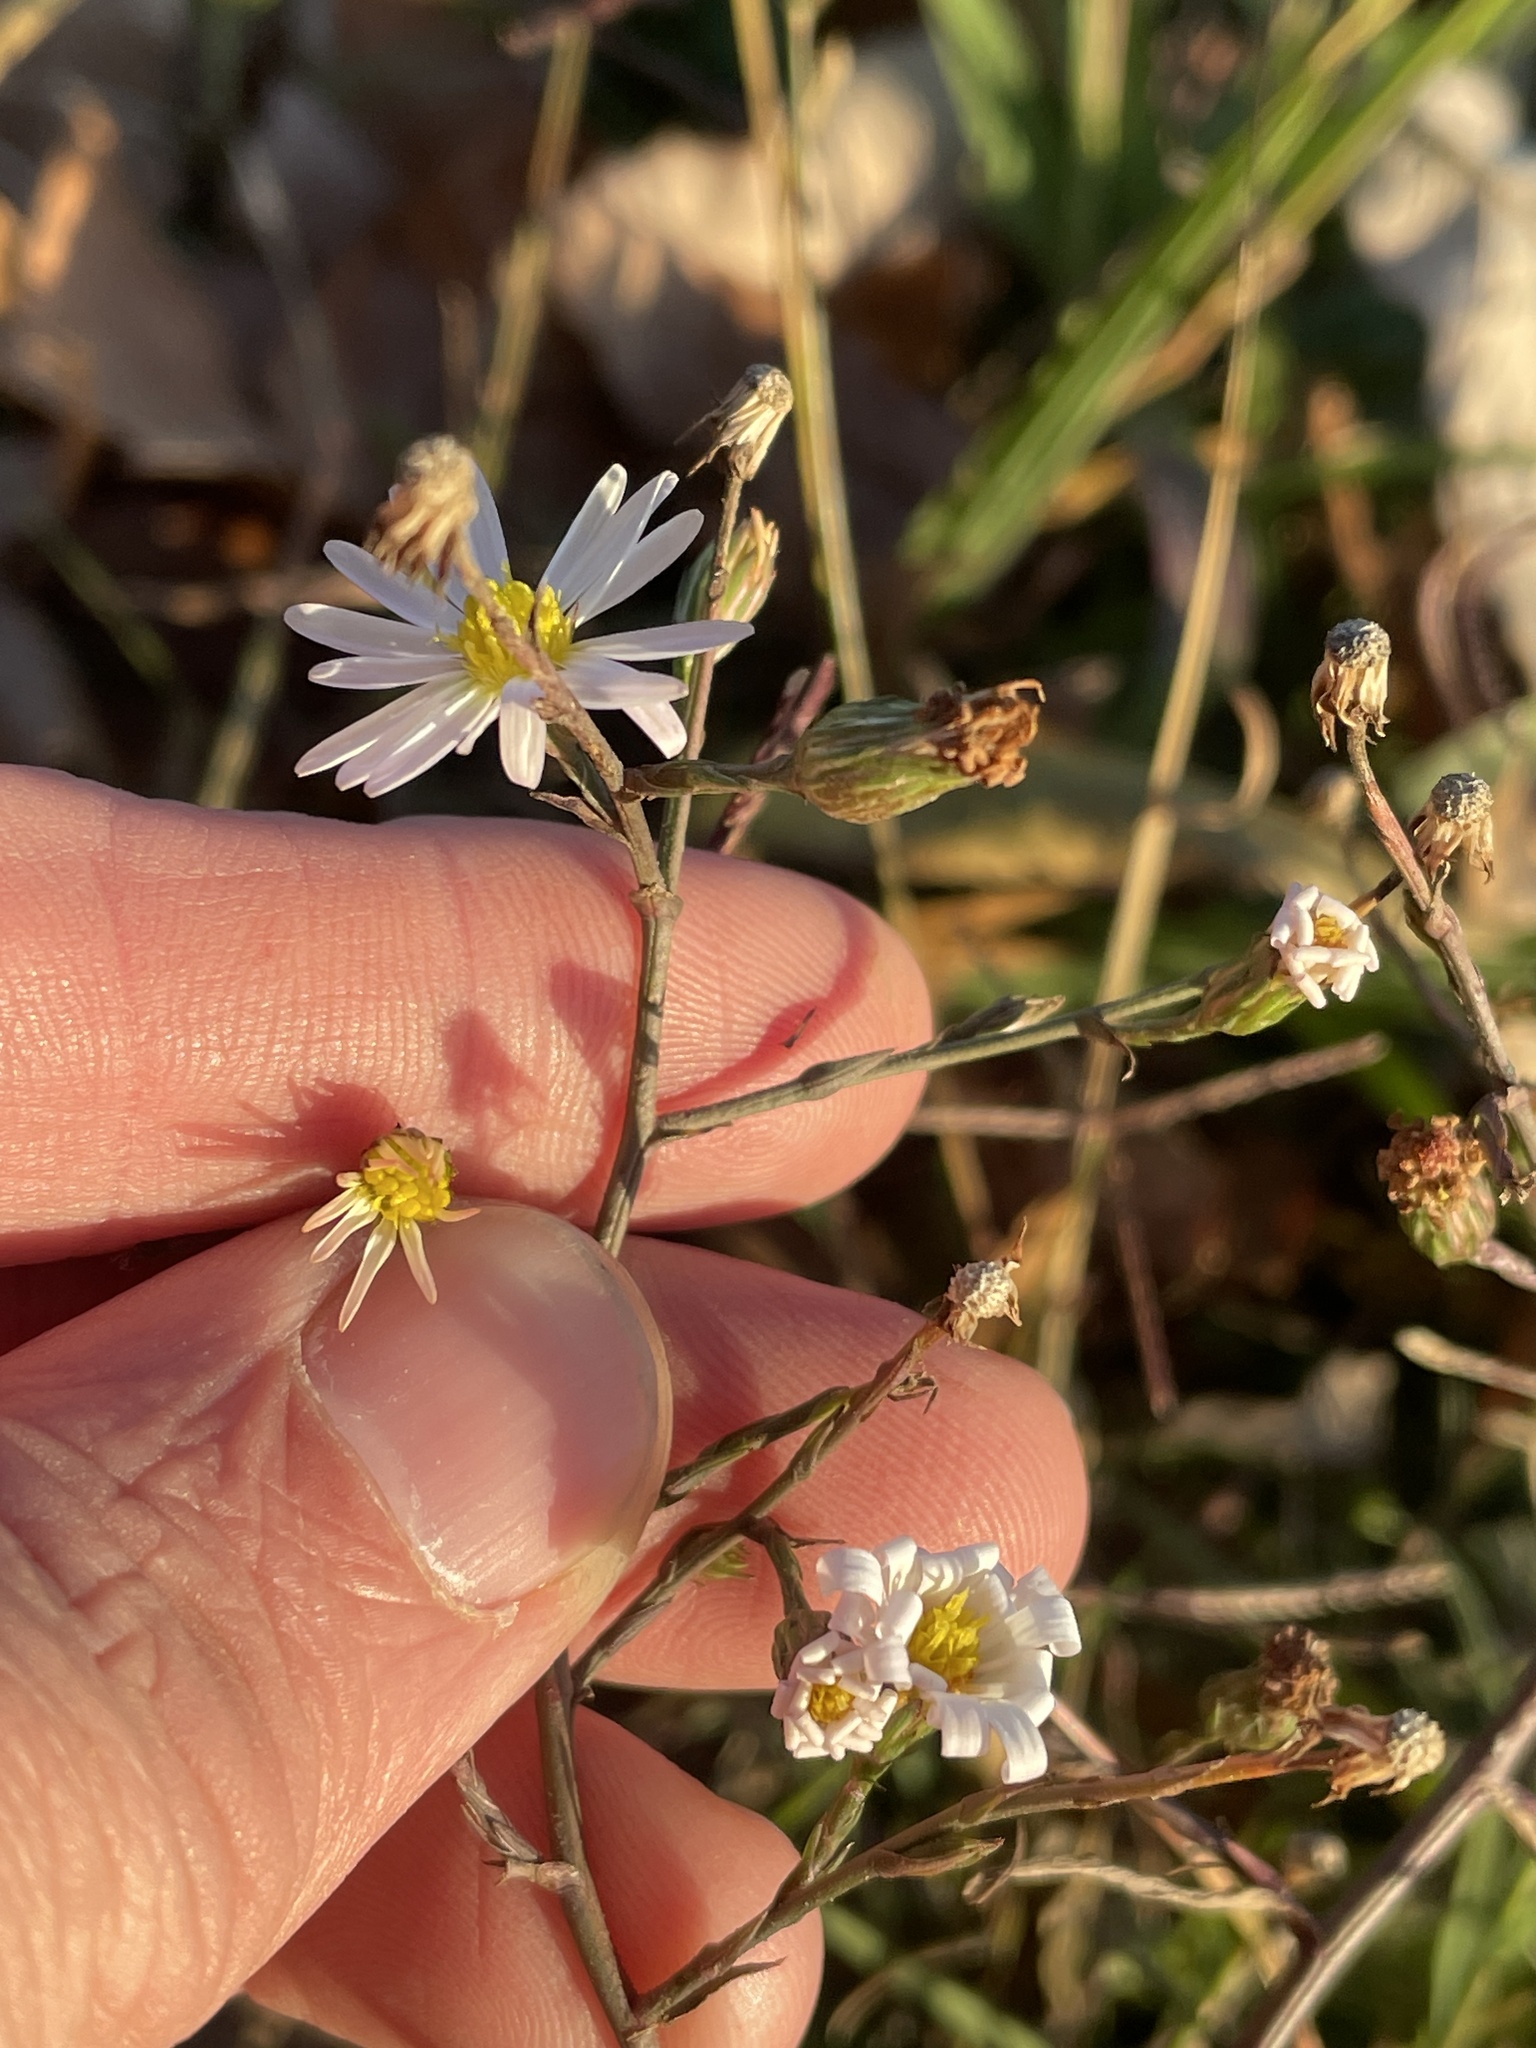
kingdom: Plantae
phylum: Tracheophyta
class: Magnoliopsida
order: Asterales
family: Asteraceae
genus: Symphyotrichum
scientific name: Symphyotrichum divaricatum
